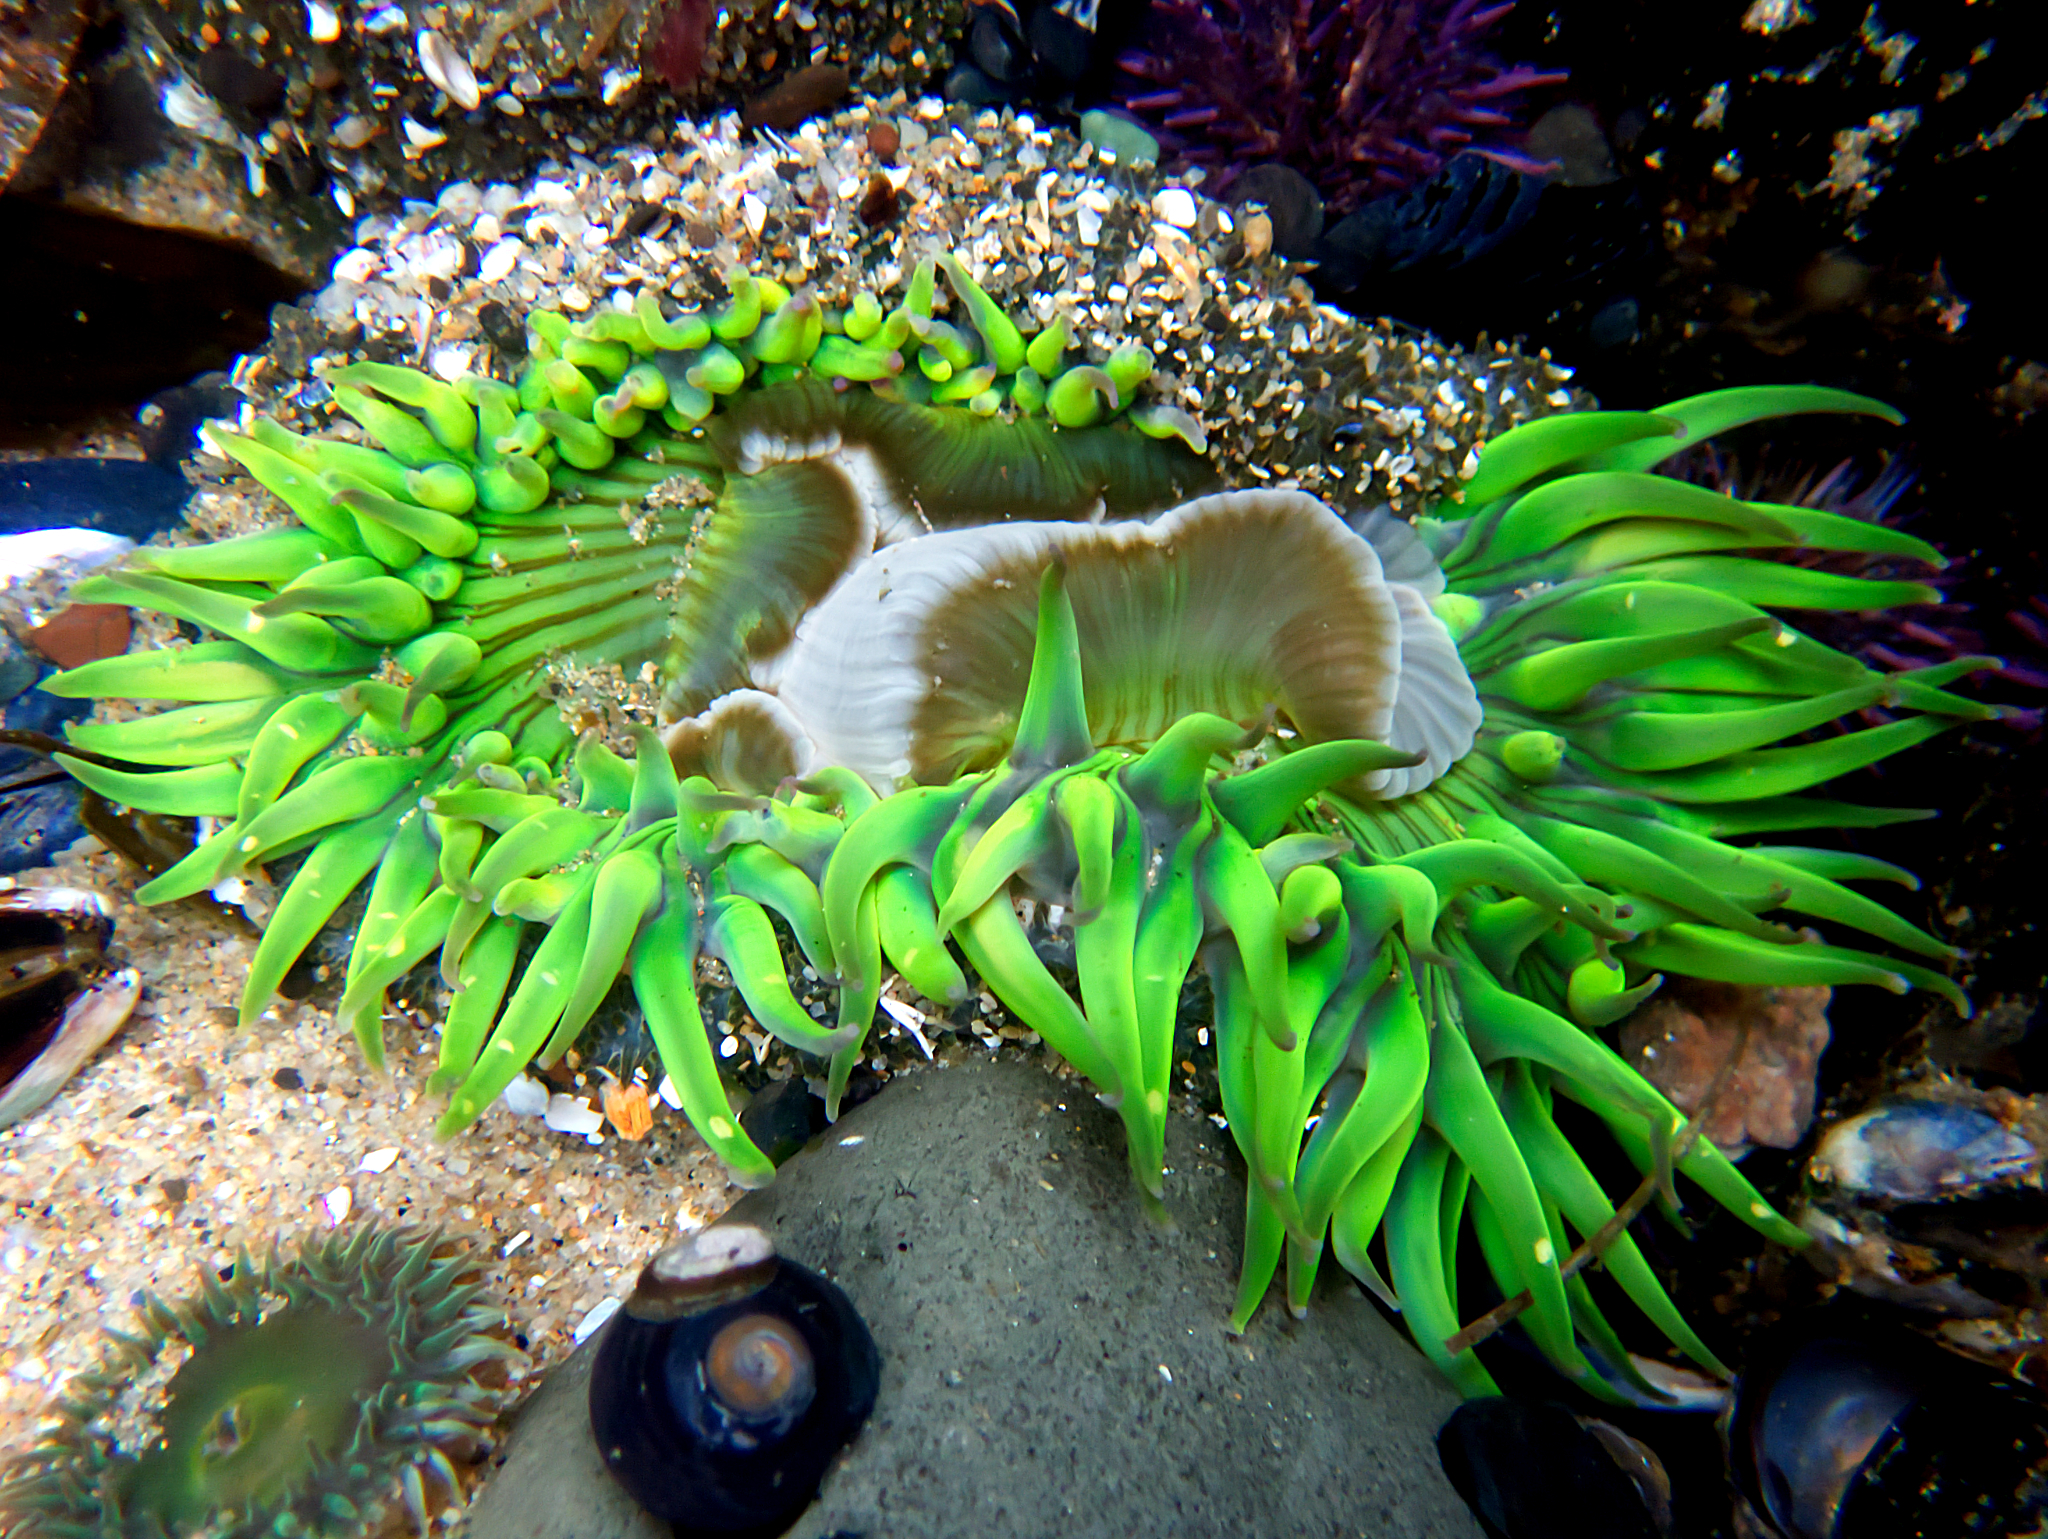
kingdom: Animalia
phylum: Cnidaria
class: Anthozoa
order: Actiniaria
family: Actiniidae
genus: Anthopleura
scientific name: Anthopleura sola
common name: Sun anemone
